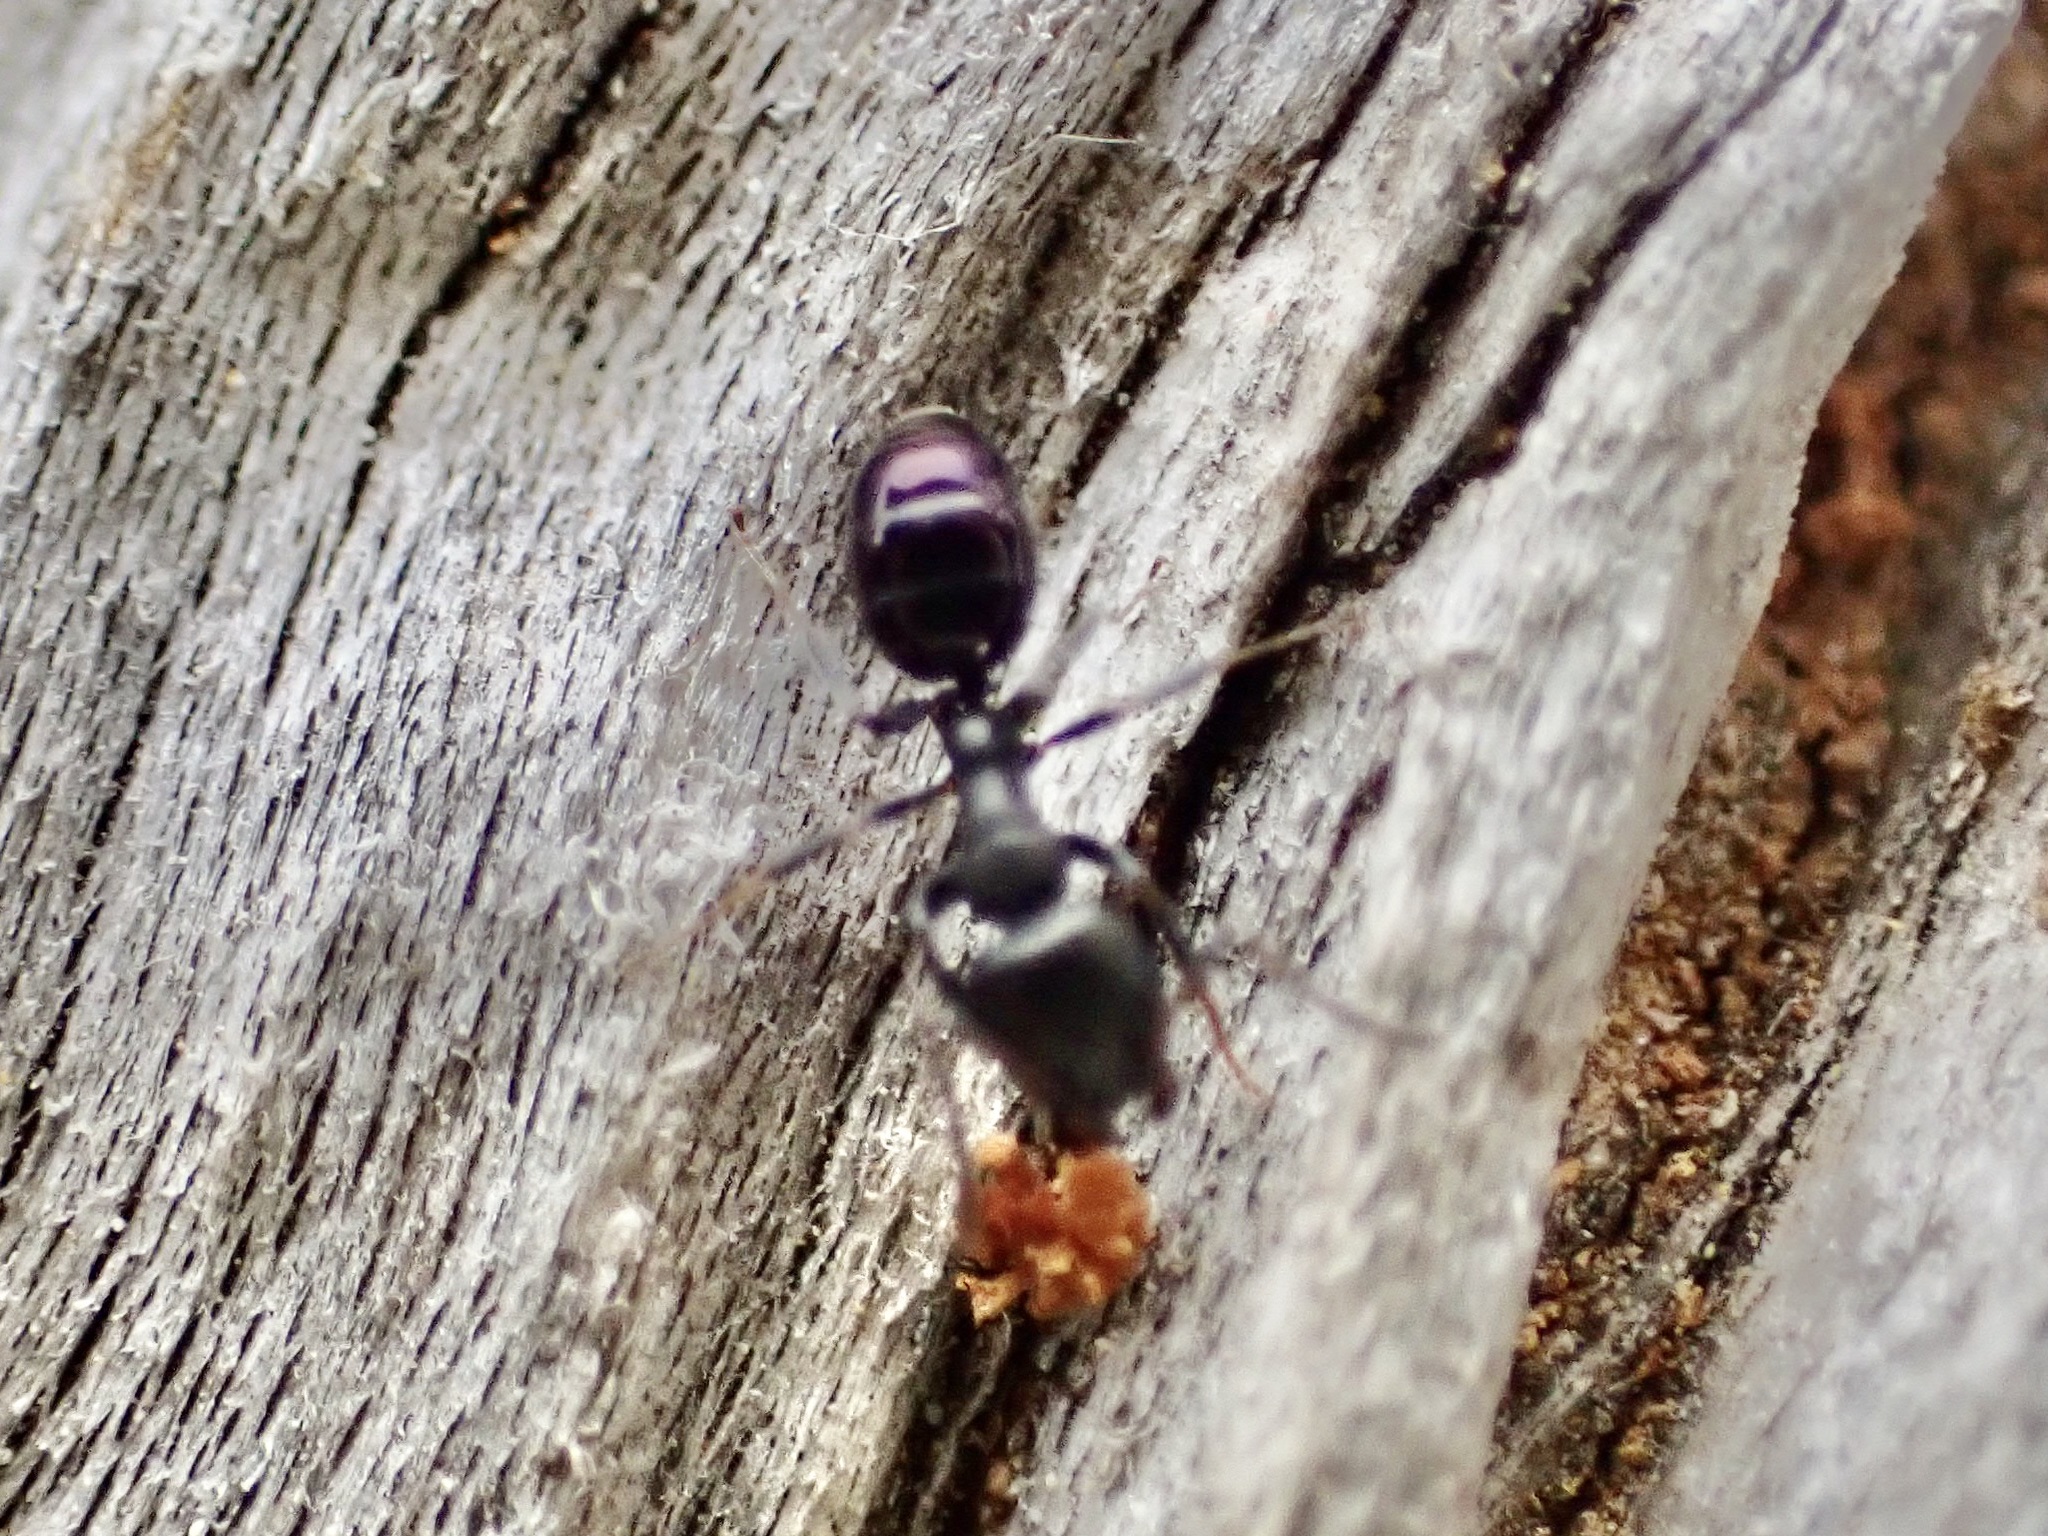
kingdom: Animalia
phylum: Arthropoda
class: Insecta
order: Hymenoptera
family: Formicidae
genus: Ochetellus
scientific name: Ochetellus glaber
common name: Ant
